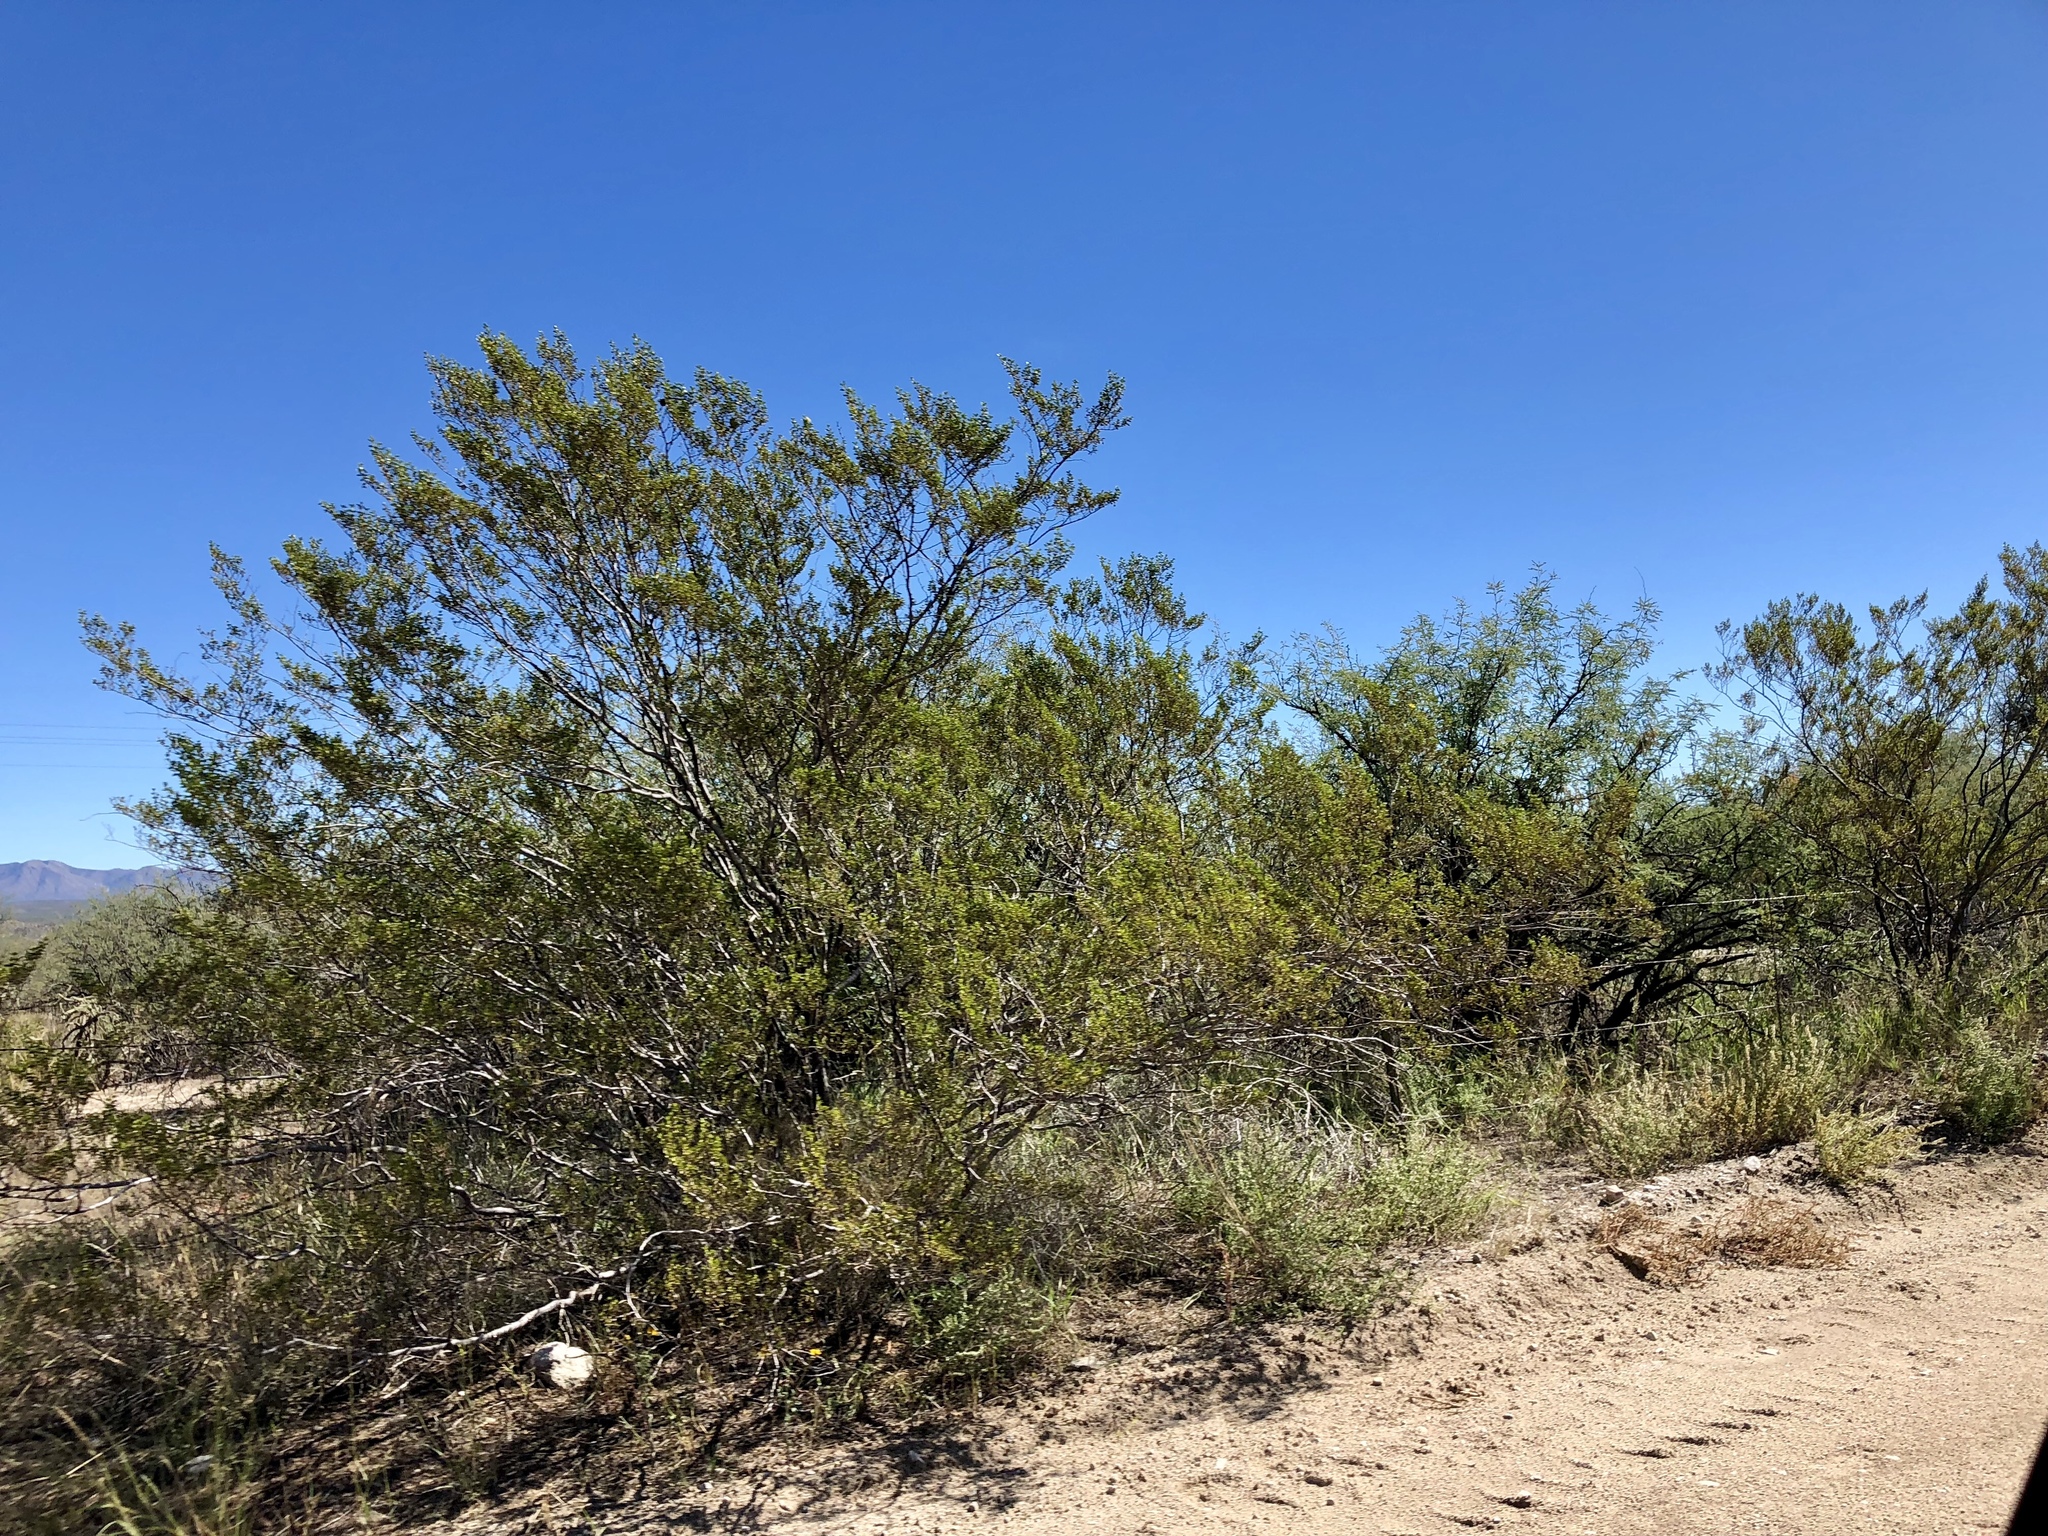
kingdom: Plantae
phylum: Tracheophyta
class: Magnoliopsida
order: Zygophyllales
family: Zygophyllaceae
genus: Larrea
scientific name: Larrea tridentata
